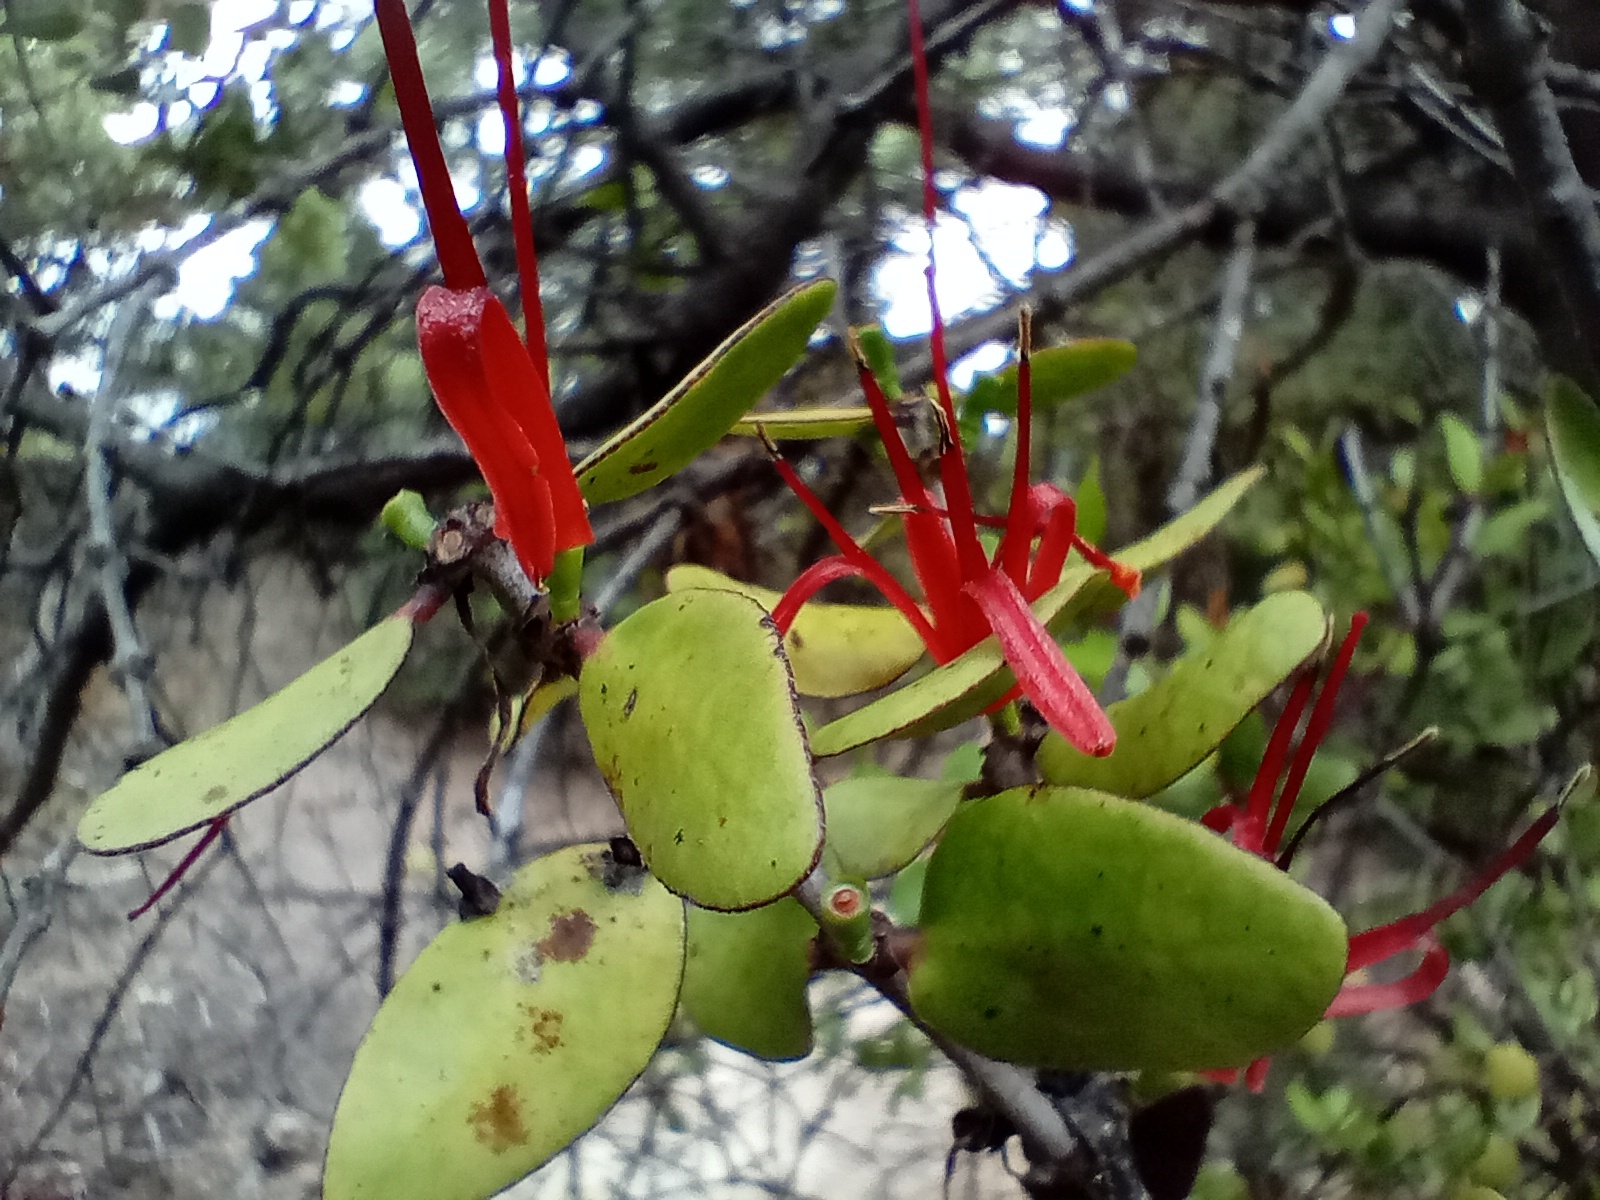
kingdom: Plantae
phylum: Tracheophyta
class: Magnoliopsida
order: Santalales
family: Loranthaceae
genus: Peraxilla
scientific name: Peraxilla tetrapetala
